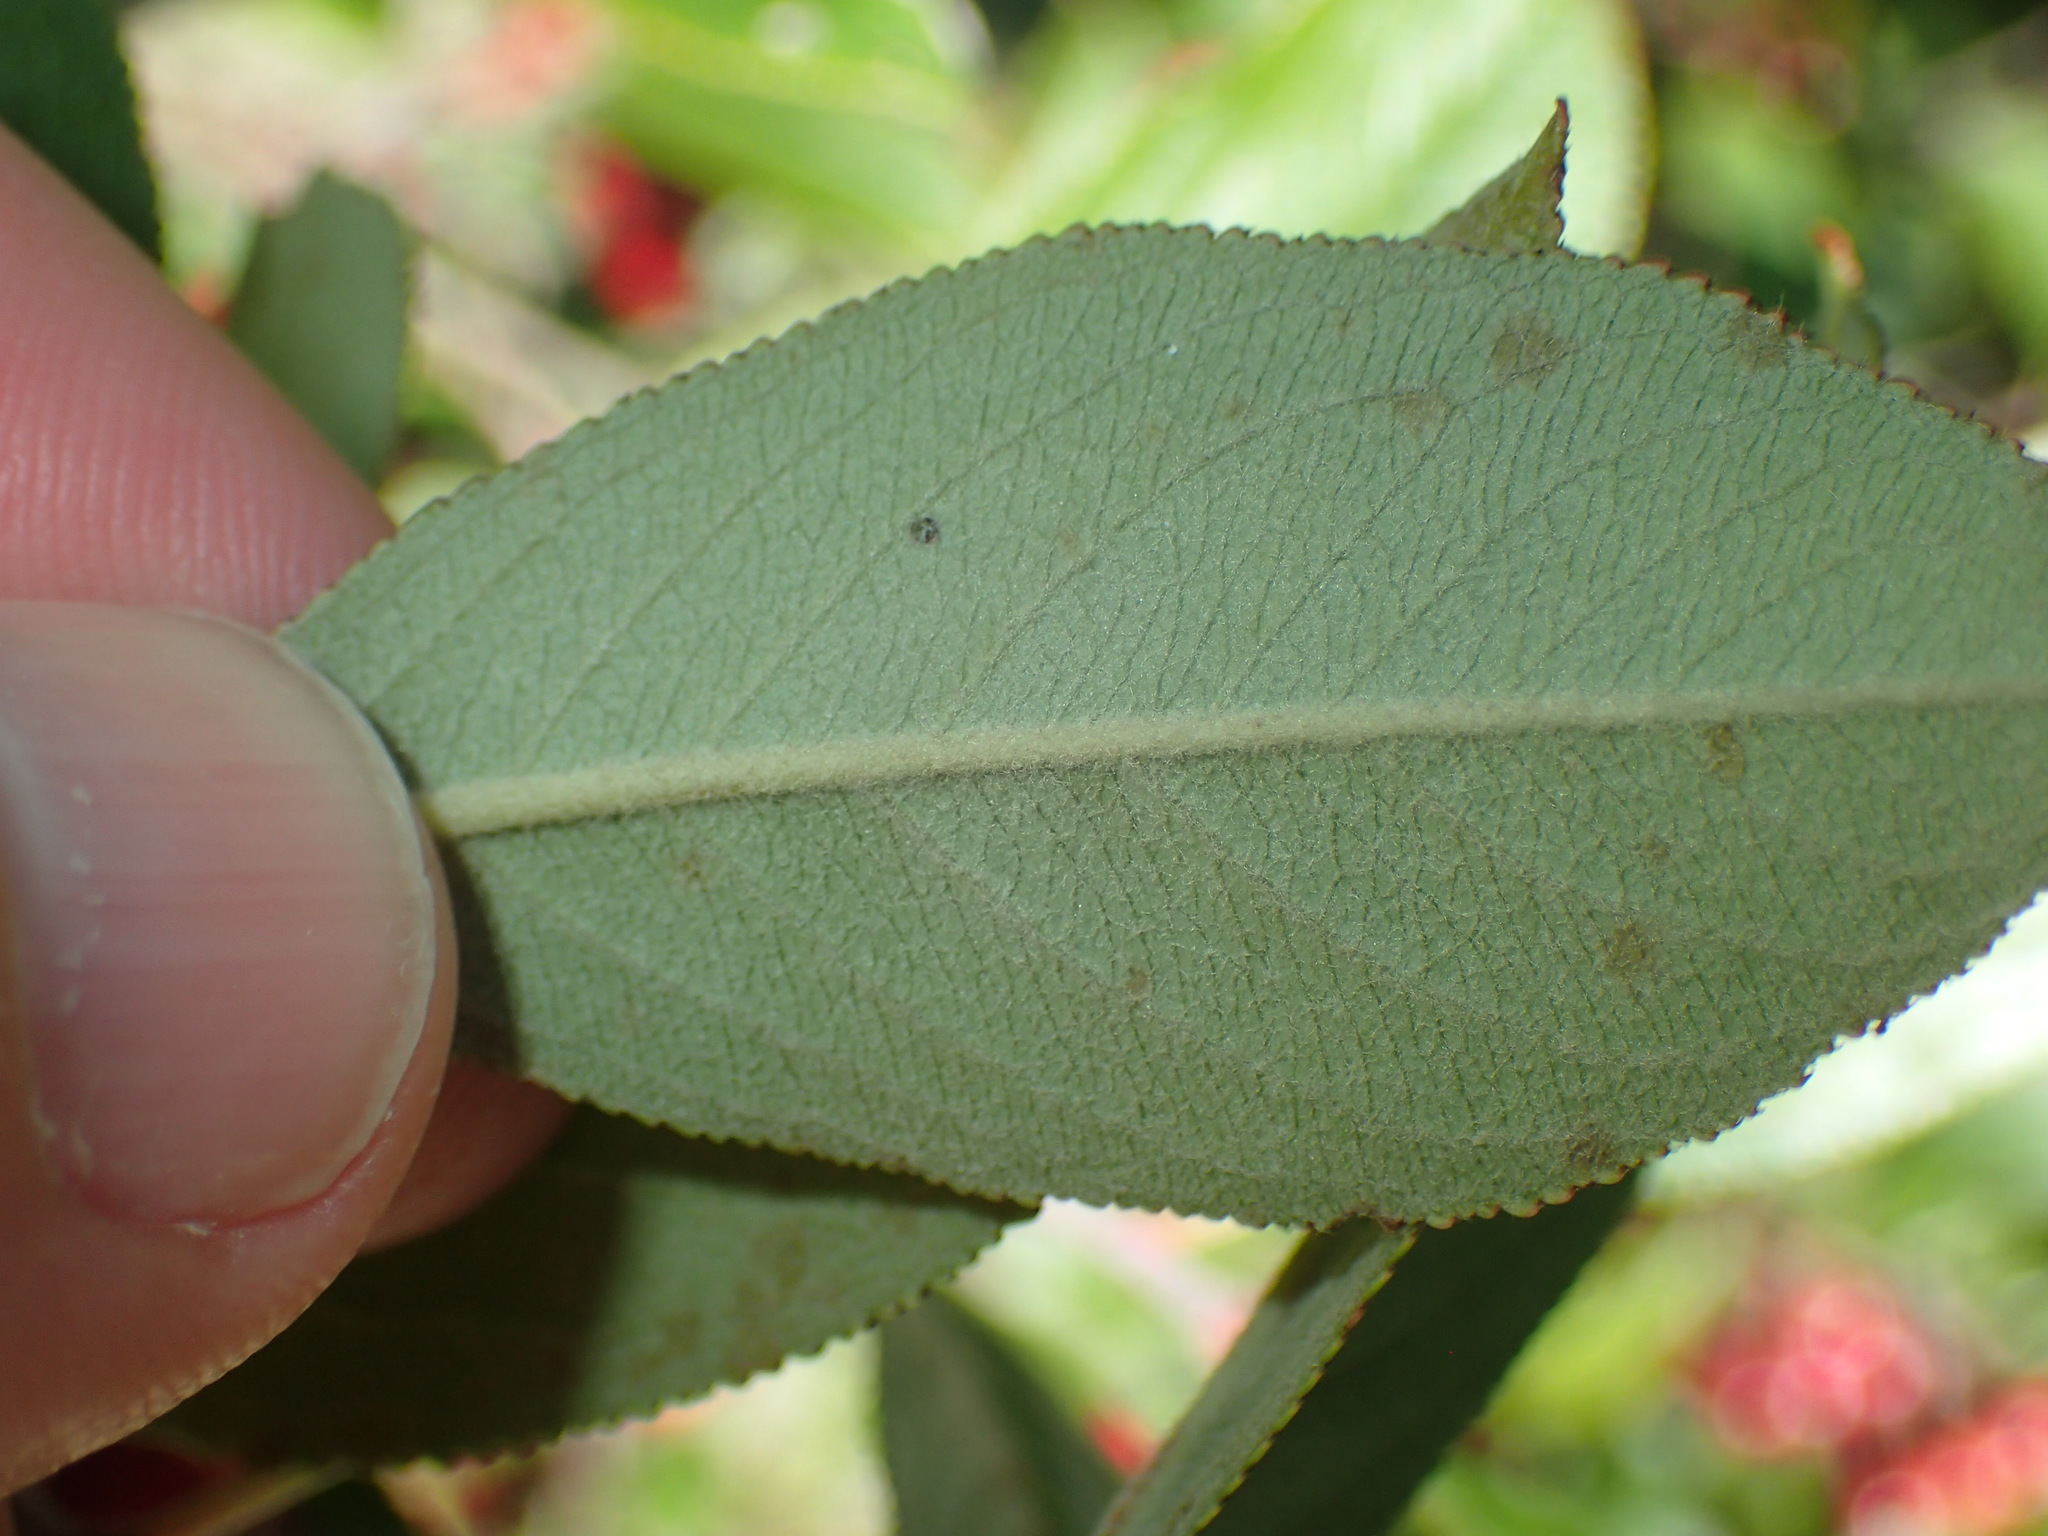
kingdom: Plantae
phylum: Tracheophyta
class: Magnoliopsida
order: Rosales
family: Rosaceae
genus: Aronia
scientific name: Aronia arbutifolia
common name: Red chokeberry
